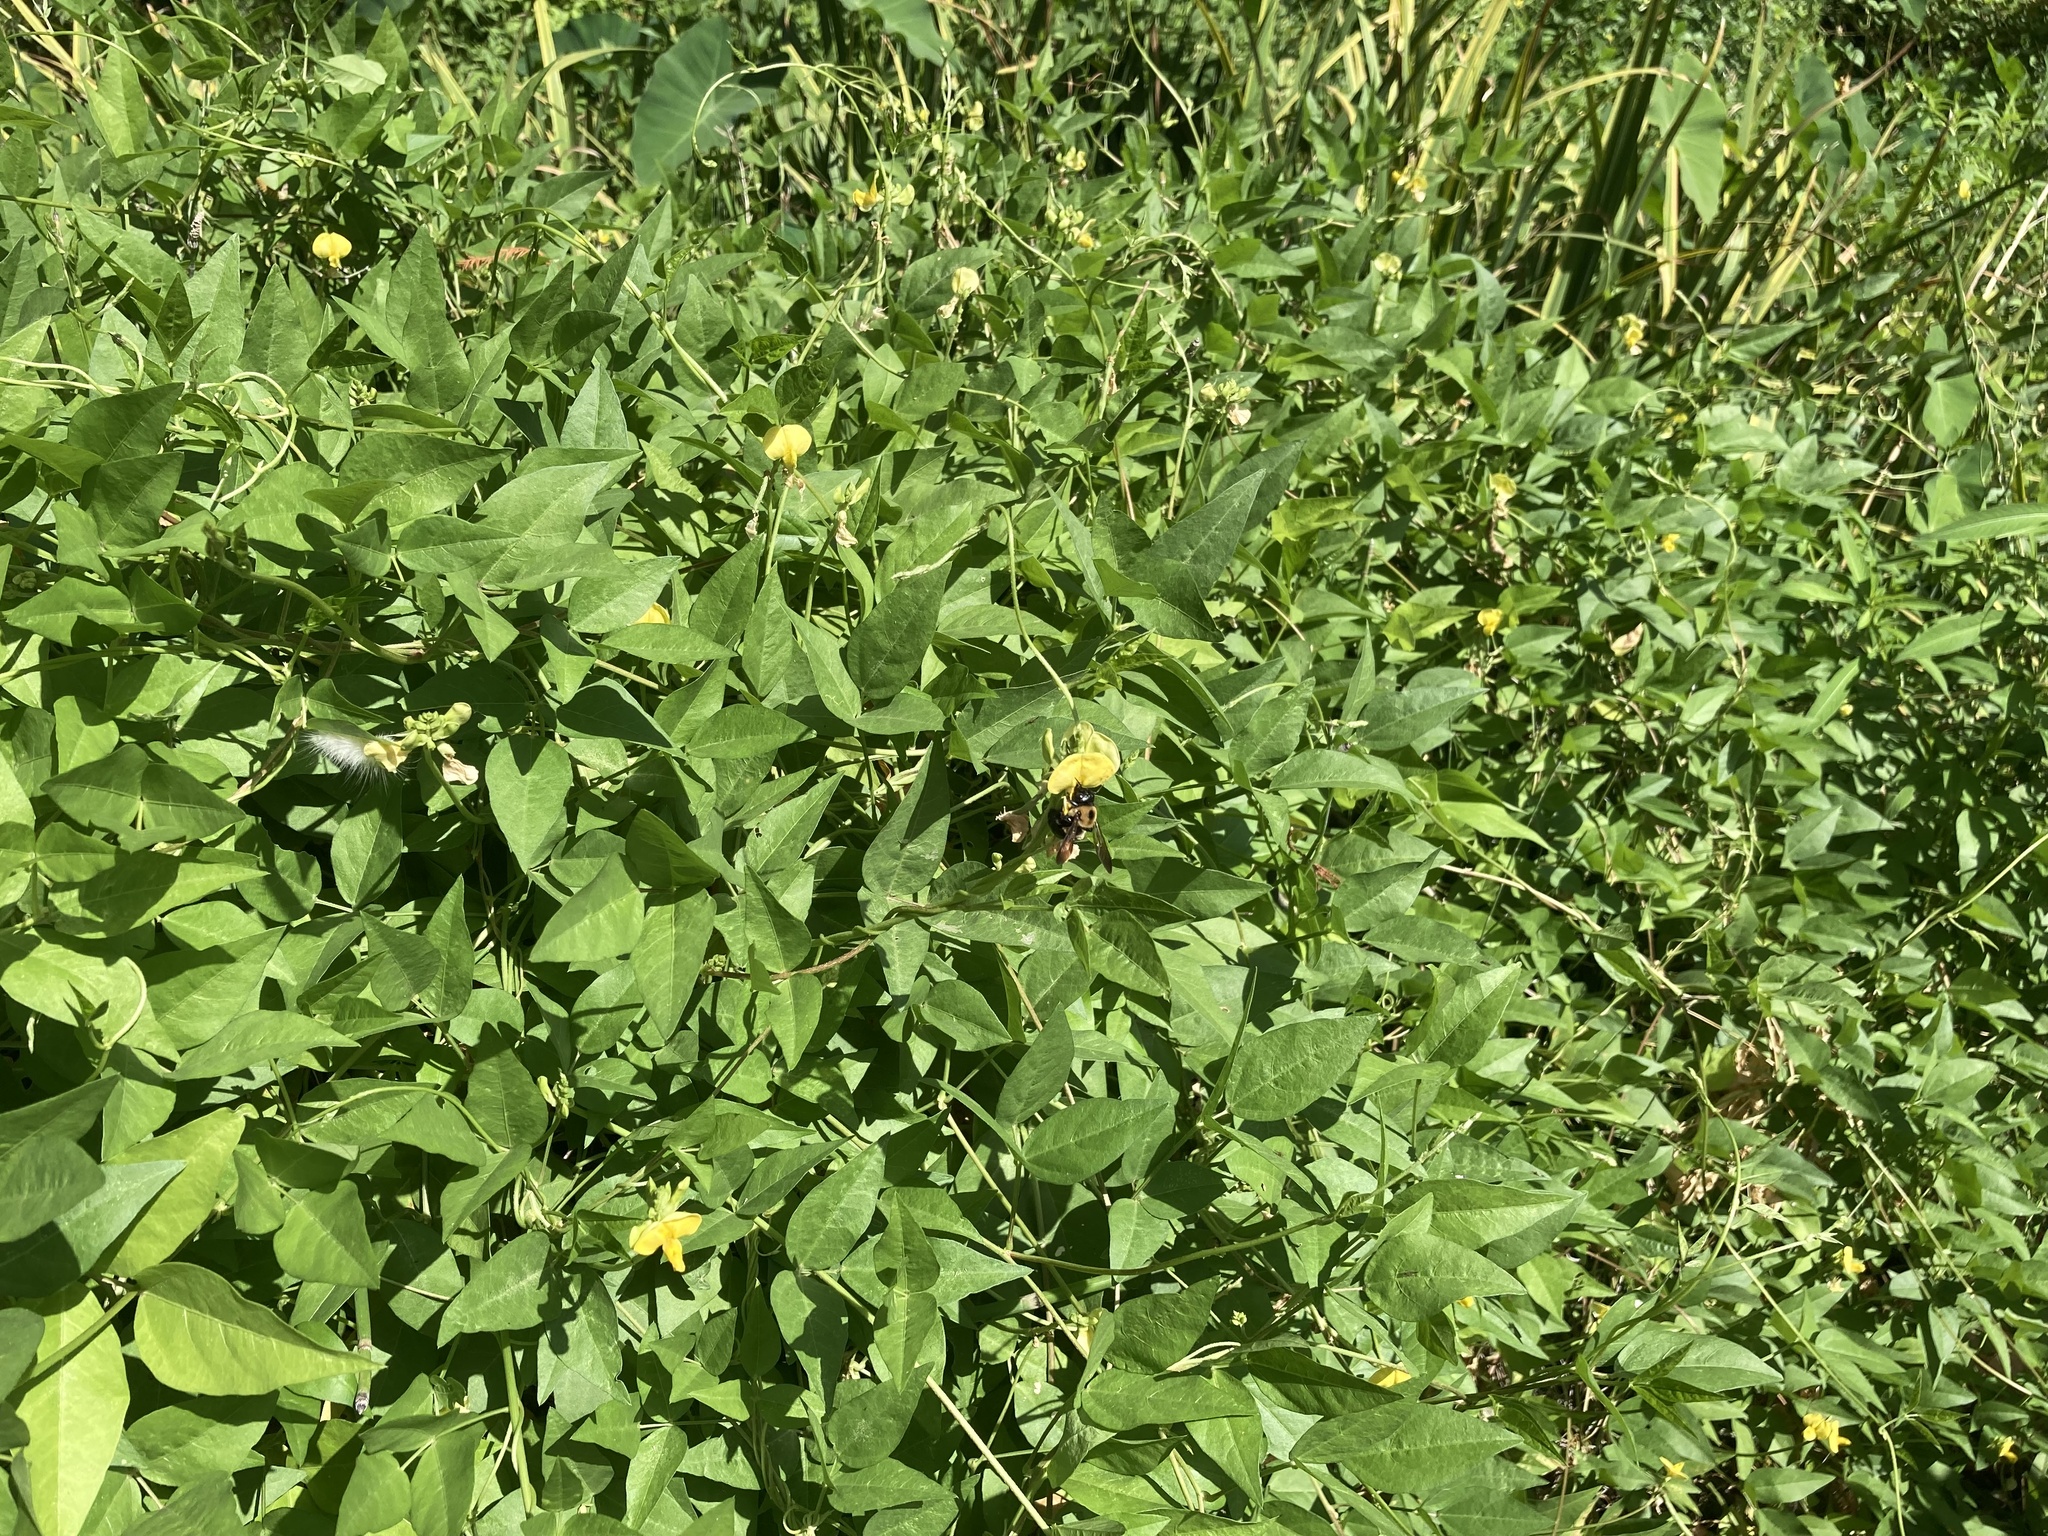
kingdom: Animalia
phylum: Arthropoda
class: Insecta
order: Hymenoptera
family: Apidae
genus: Xylocopa
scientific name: Xylocopa virginica
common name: Carpenter bee
